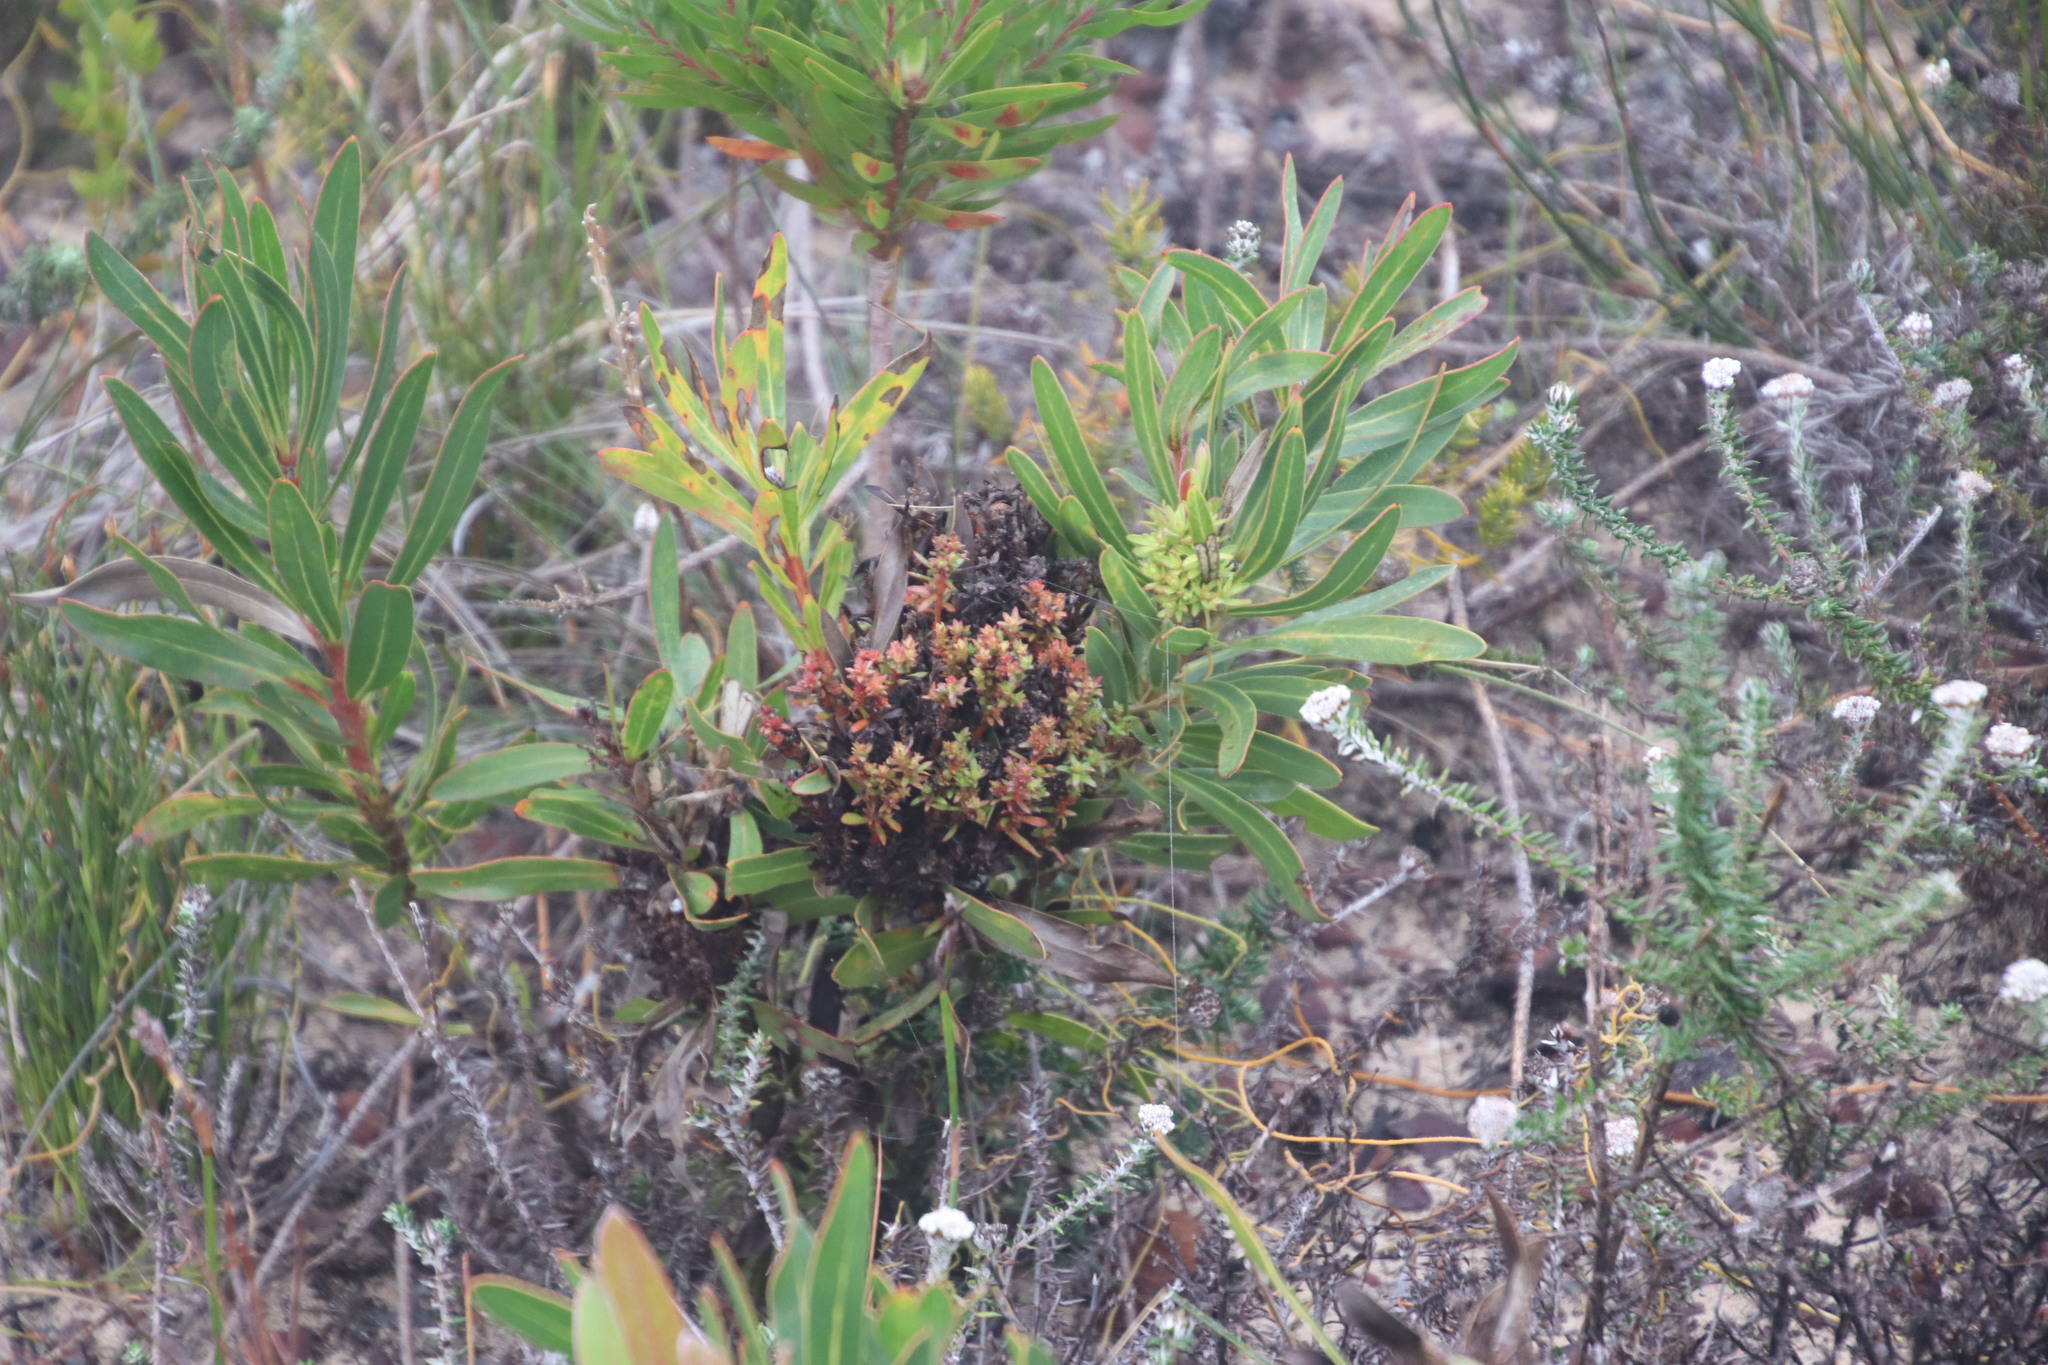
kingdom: Bacteria
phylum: Firmicutes
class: Bacilli
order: Acholeplasmatales
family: Acholeplasmataceae
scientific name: Acholeplasmataceae
